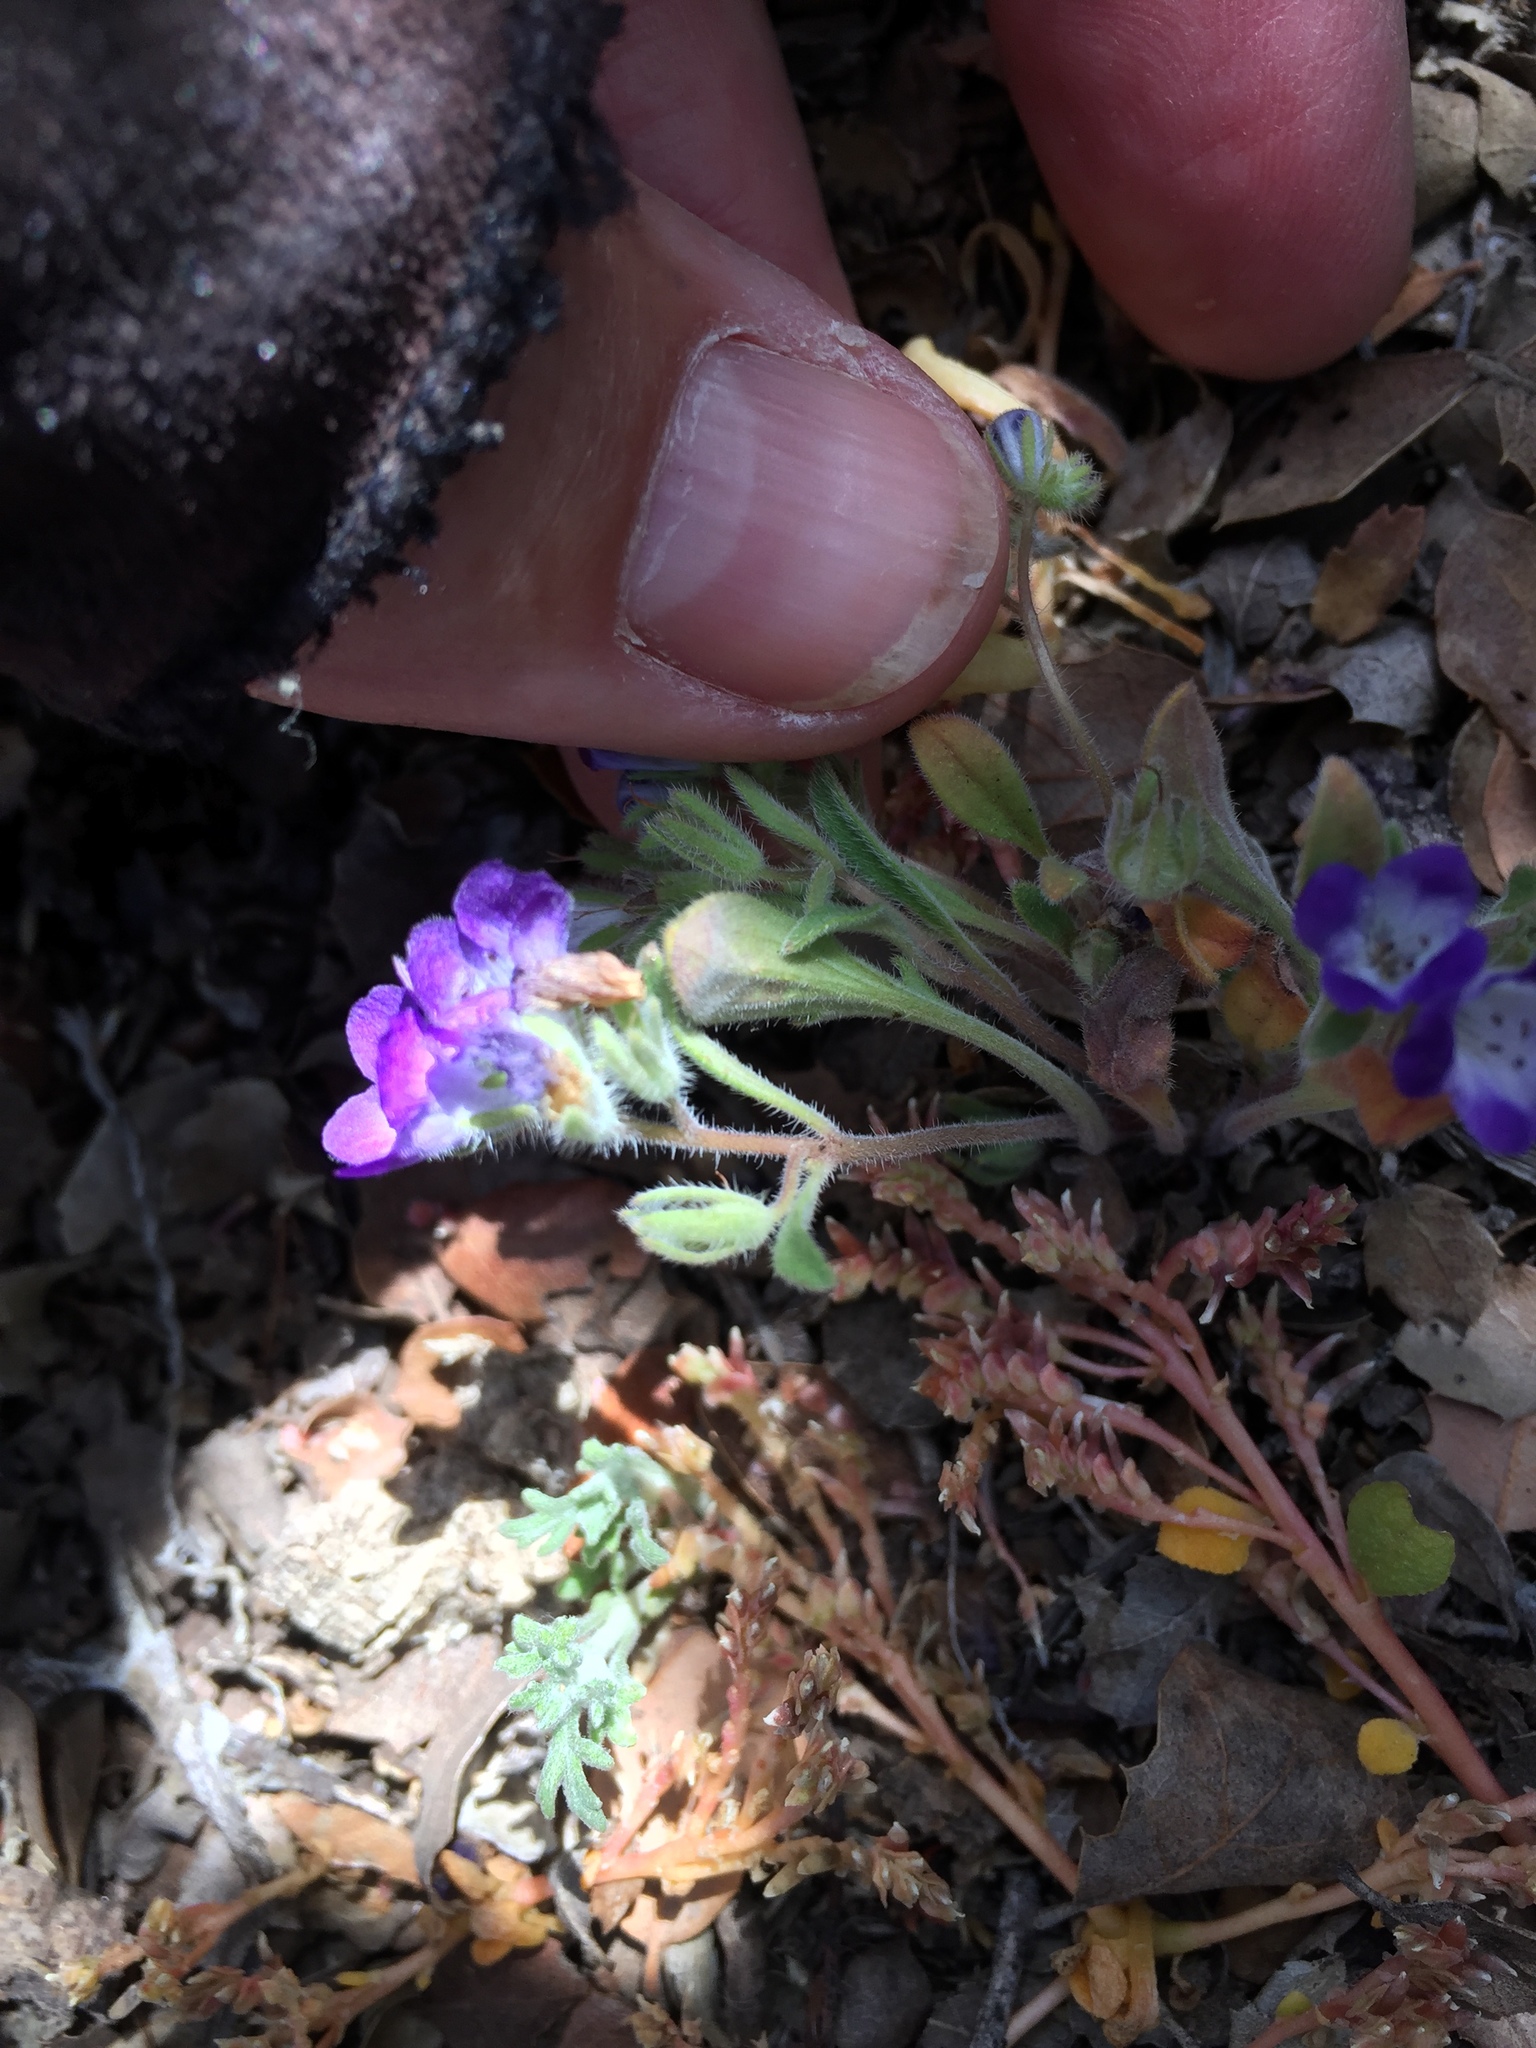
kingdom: Plantae
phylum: Tracheophyta
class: Magnoliopsida
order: Boraginales
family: Hydrophyllaceae
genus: Phacelia
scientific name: Phacelia davidsonii
